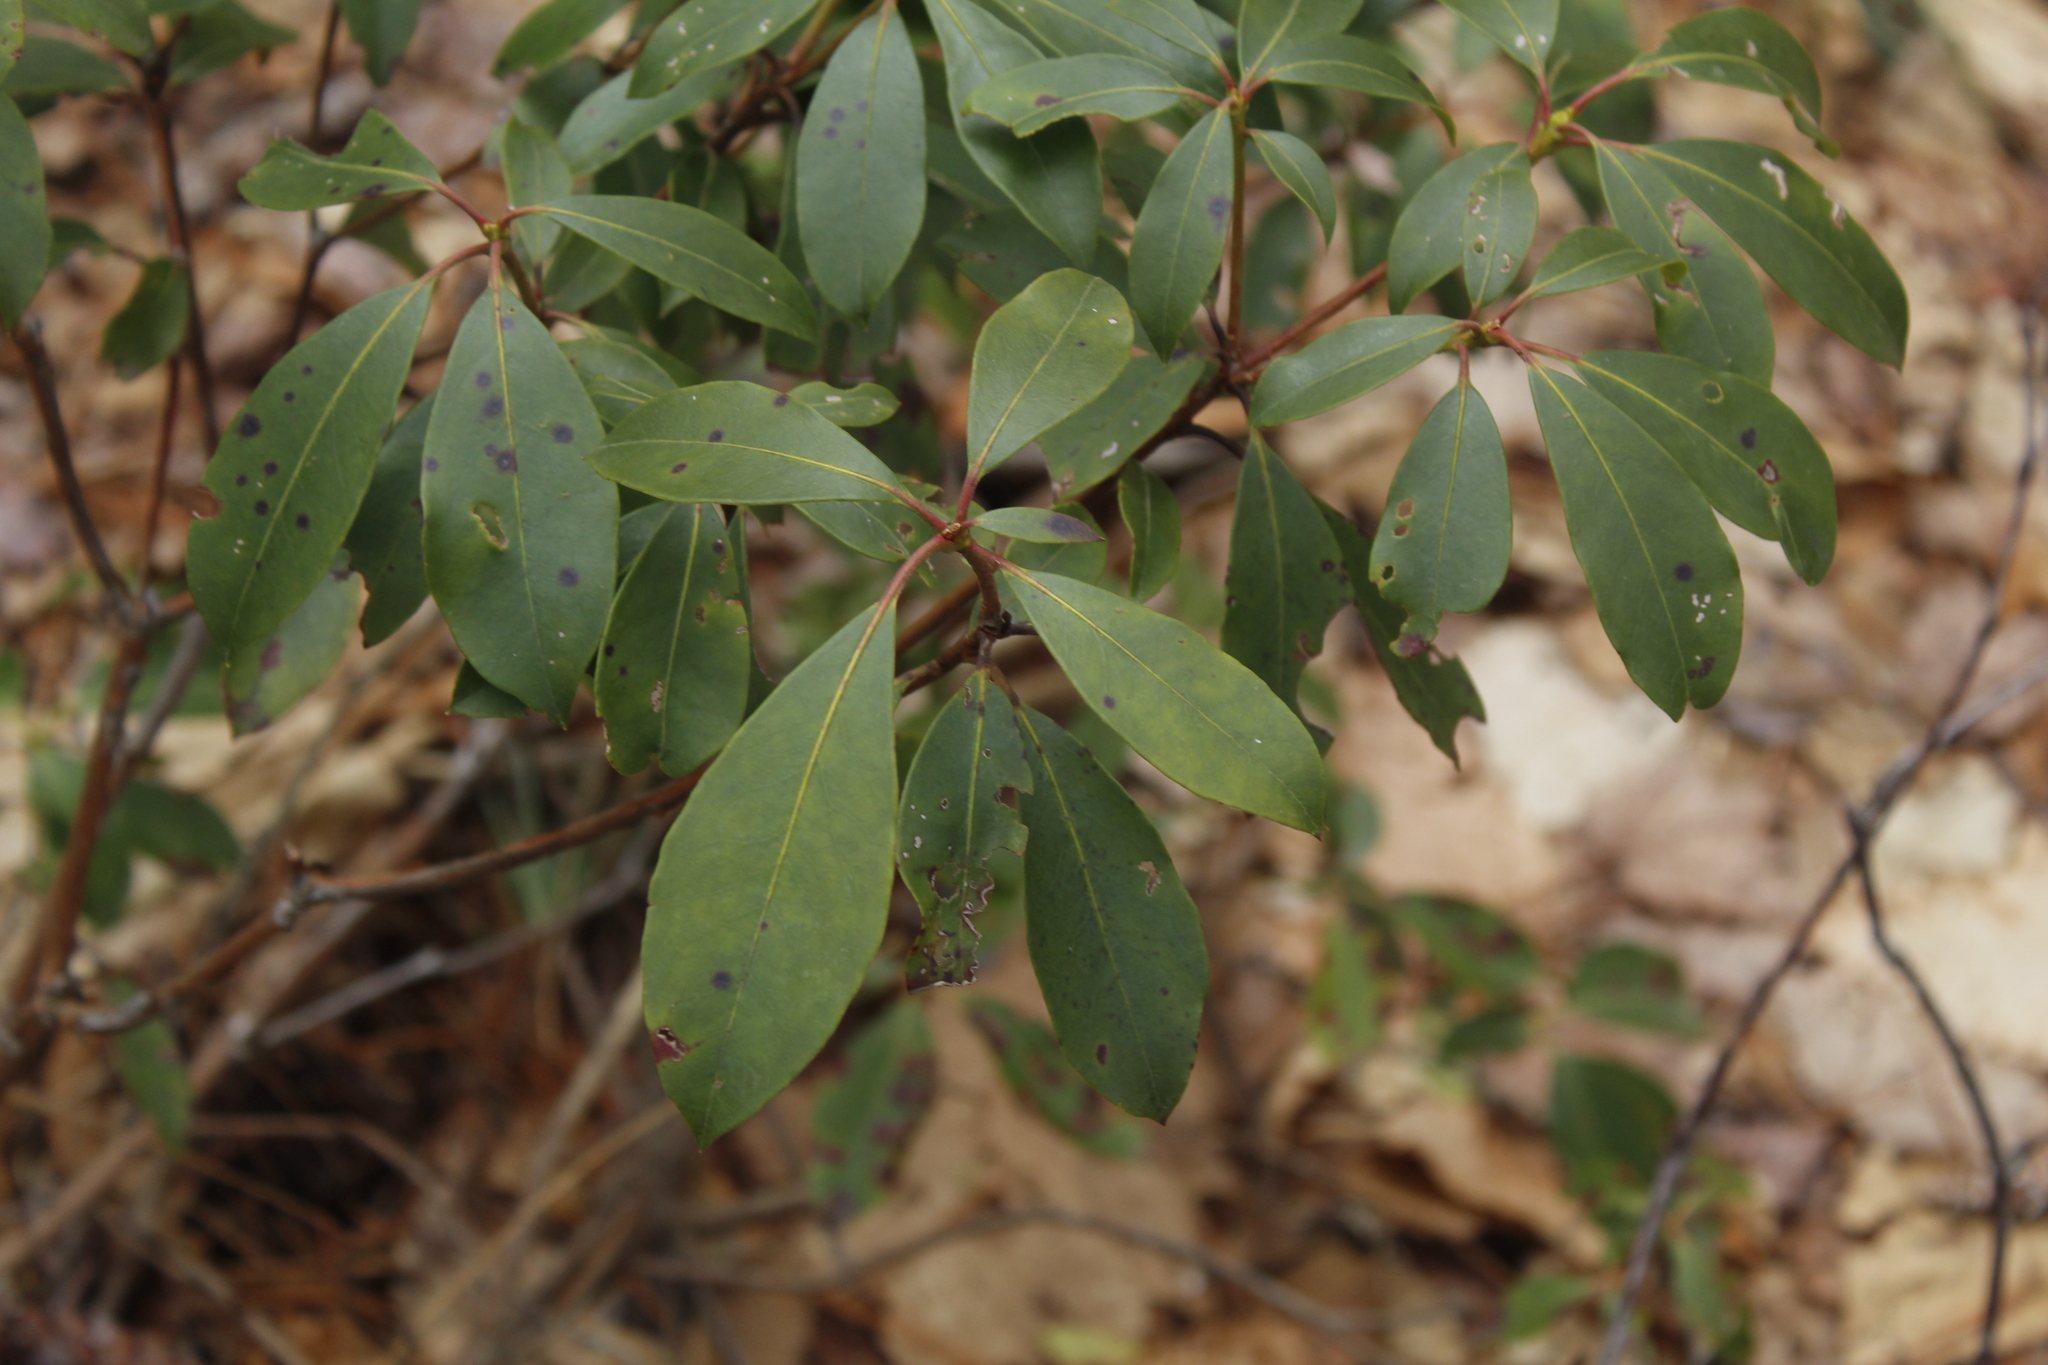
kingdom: Plantae
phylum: Tracheophyta
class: Magnoliopsida
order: Ericales
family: Ericaceae
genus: Kalmia
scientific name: Kalmia latifolia
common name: Mountain-laurel
